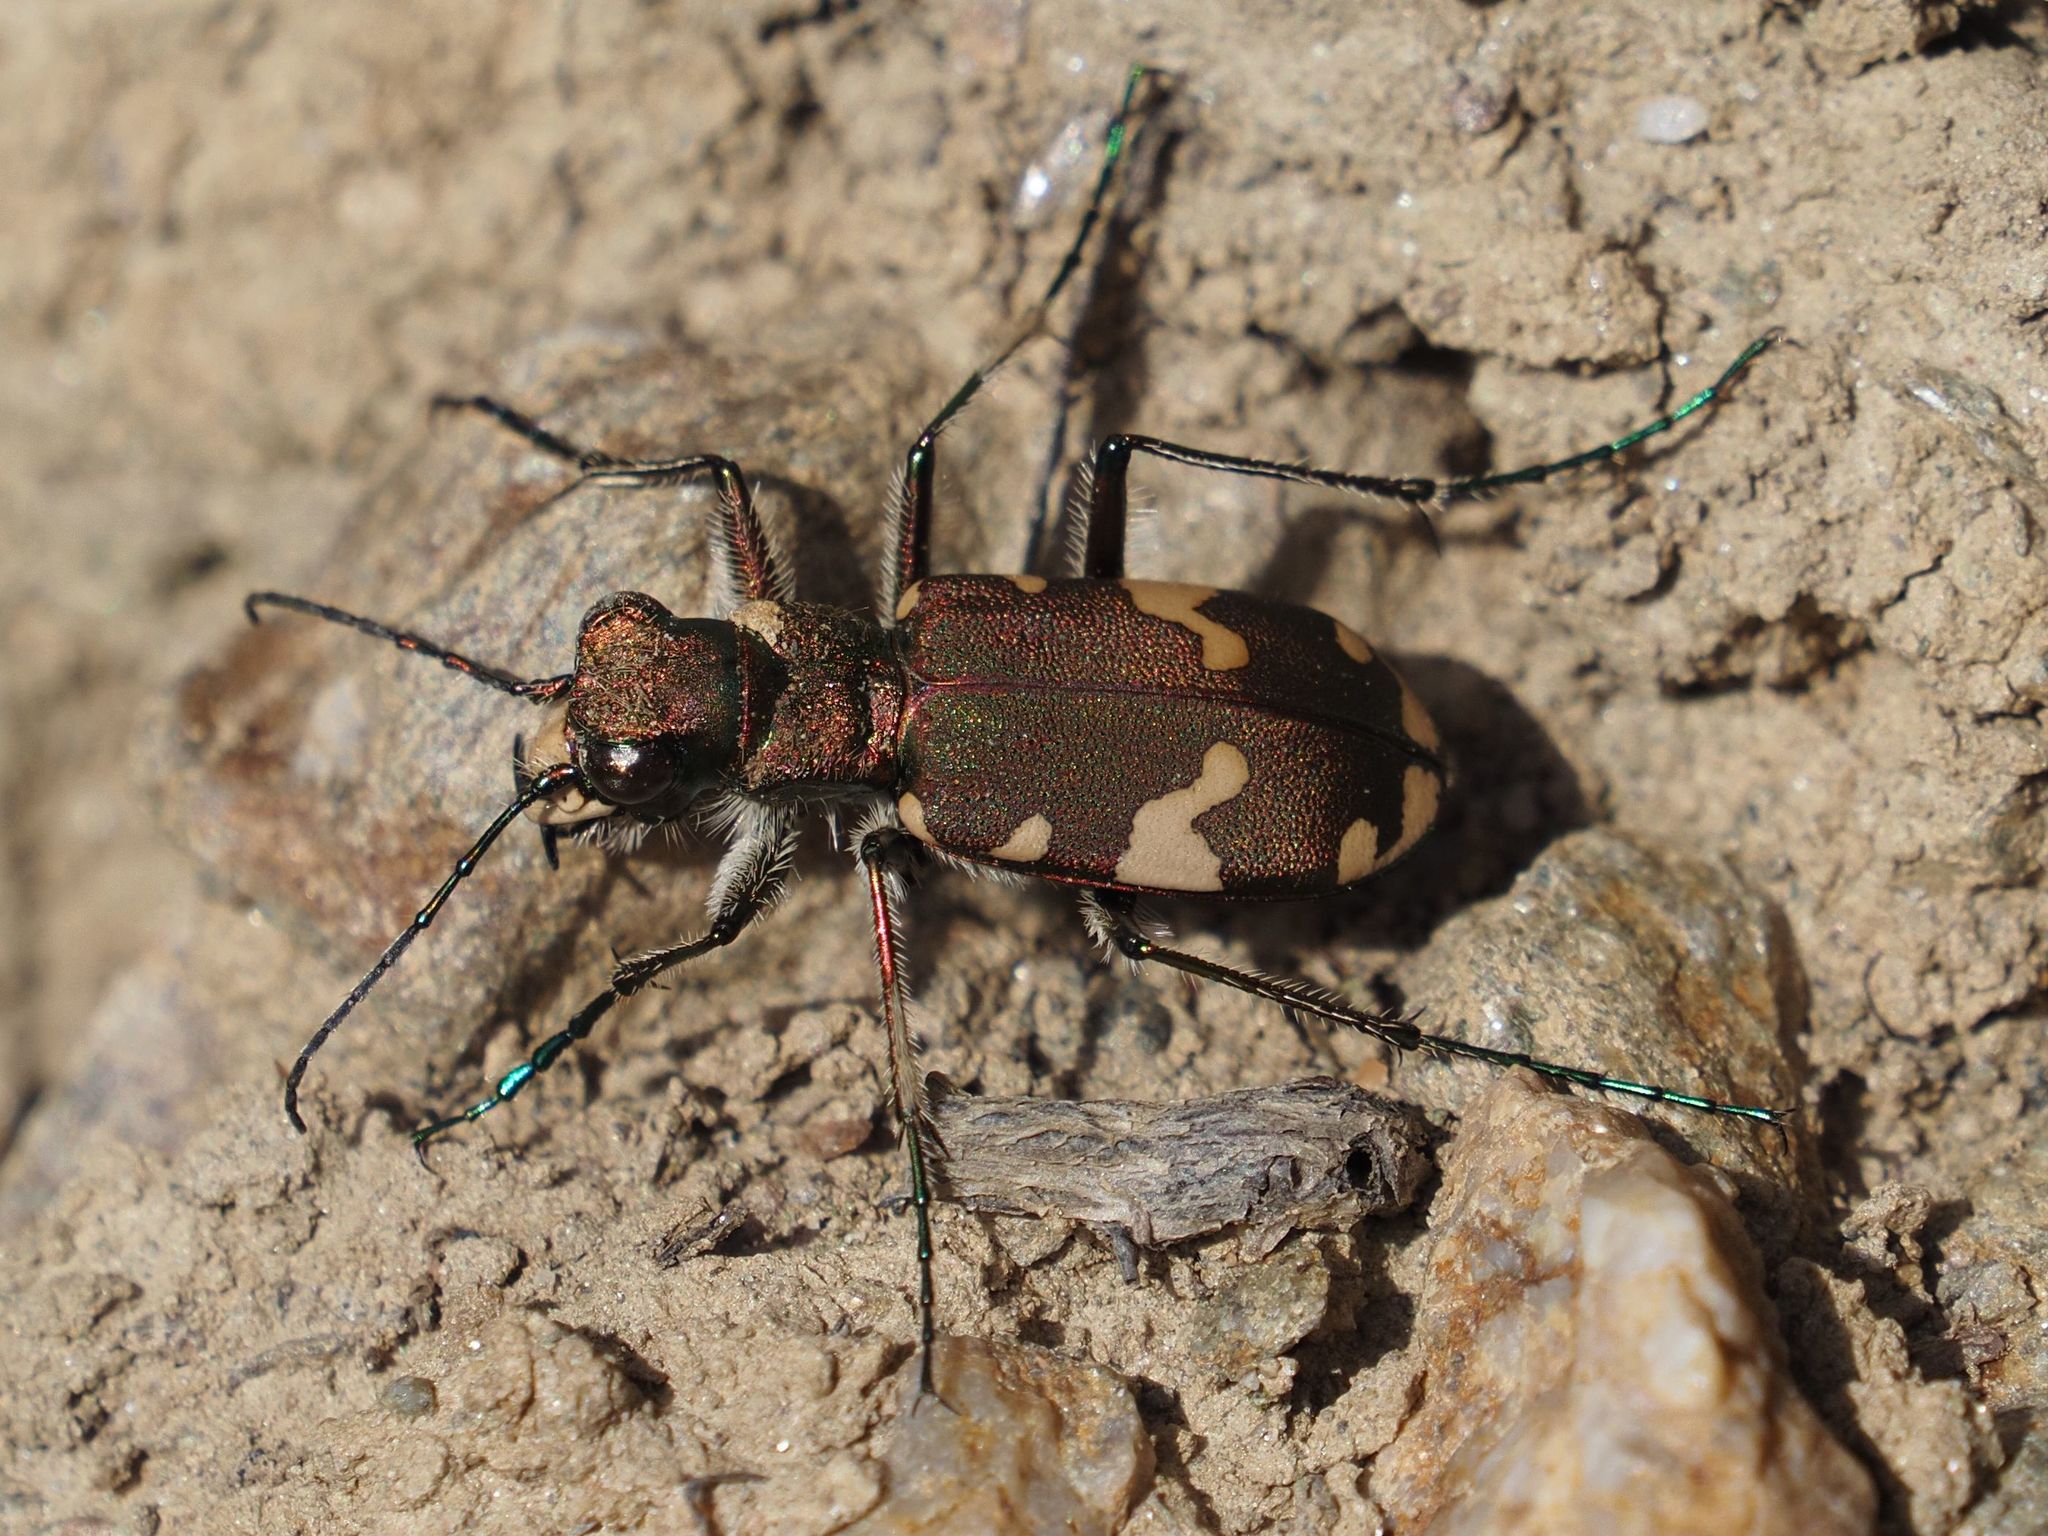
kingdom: Animalia
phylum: Arthropoda
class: Insecta
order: Coleoptera
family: Carabidae
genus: Cicindela
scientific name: Cicindela sylvicola
